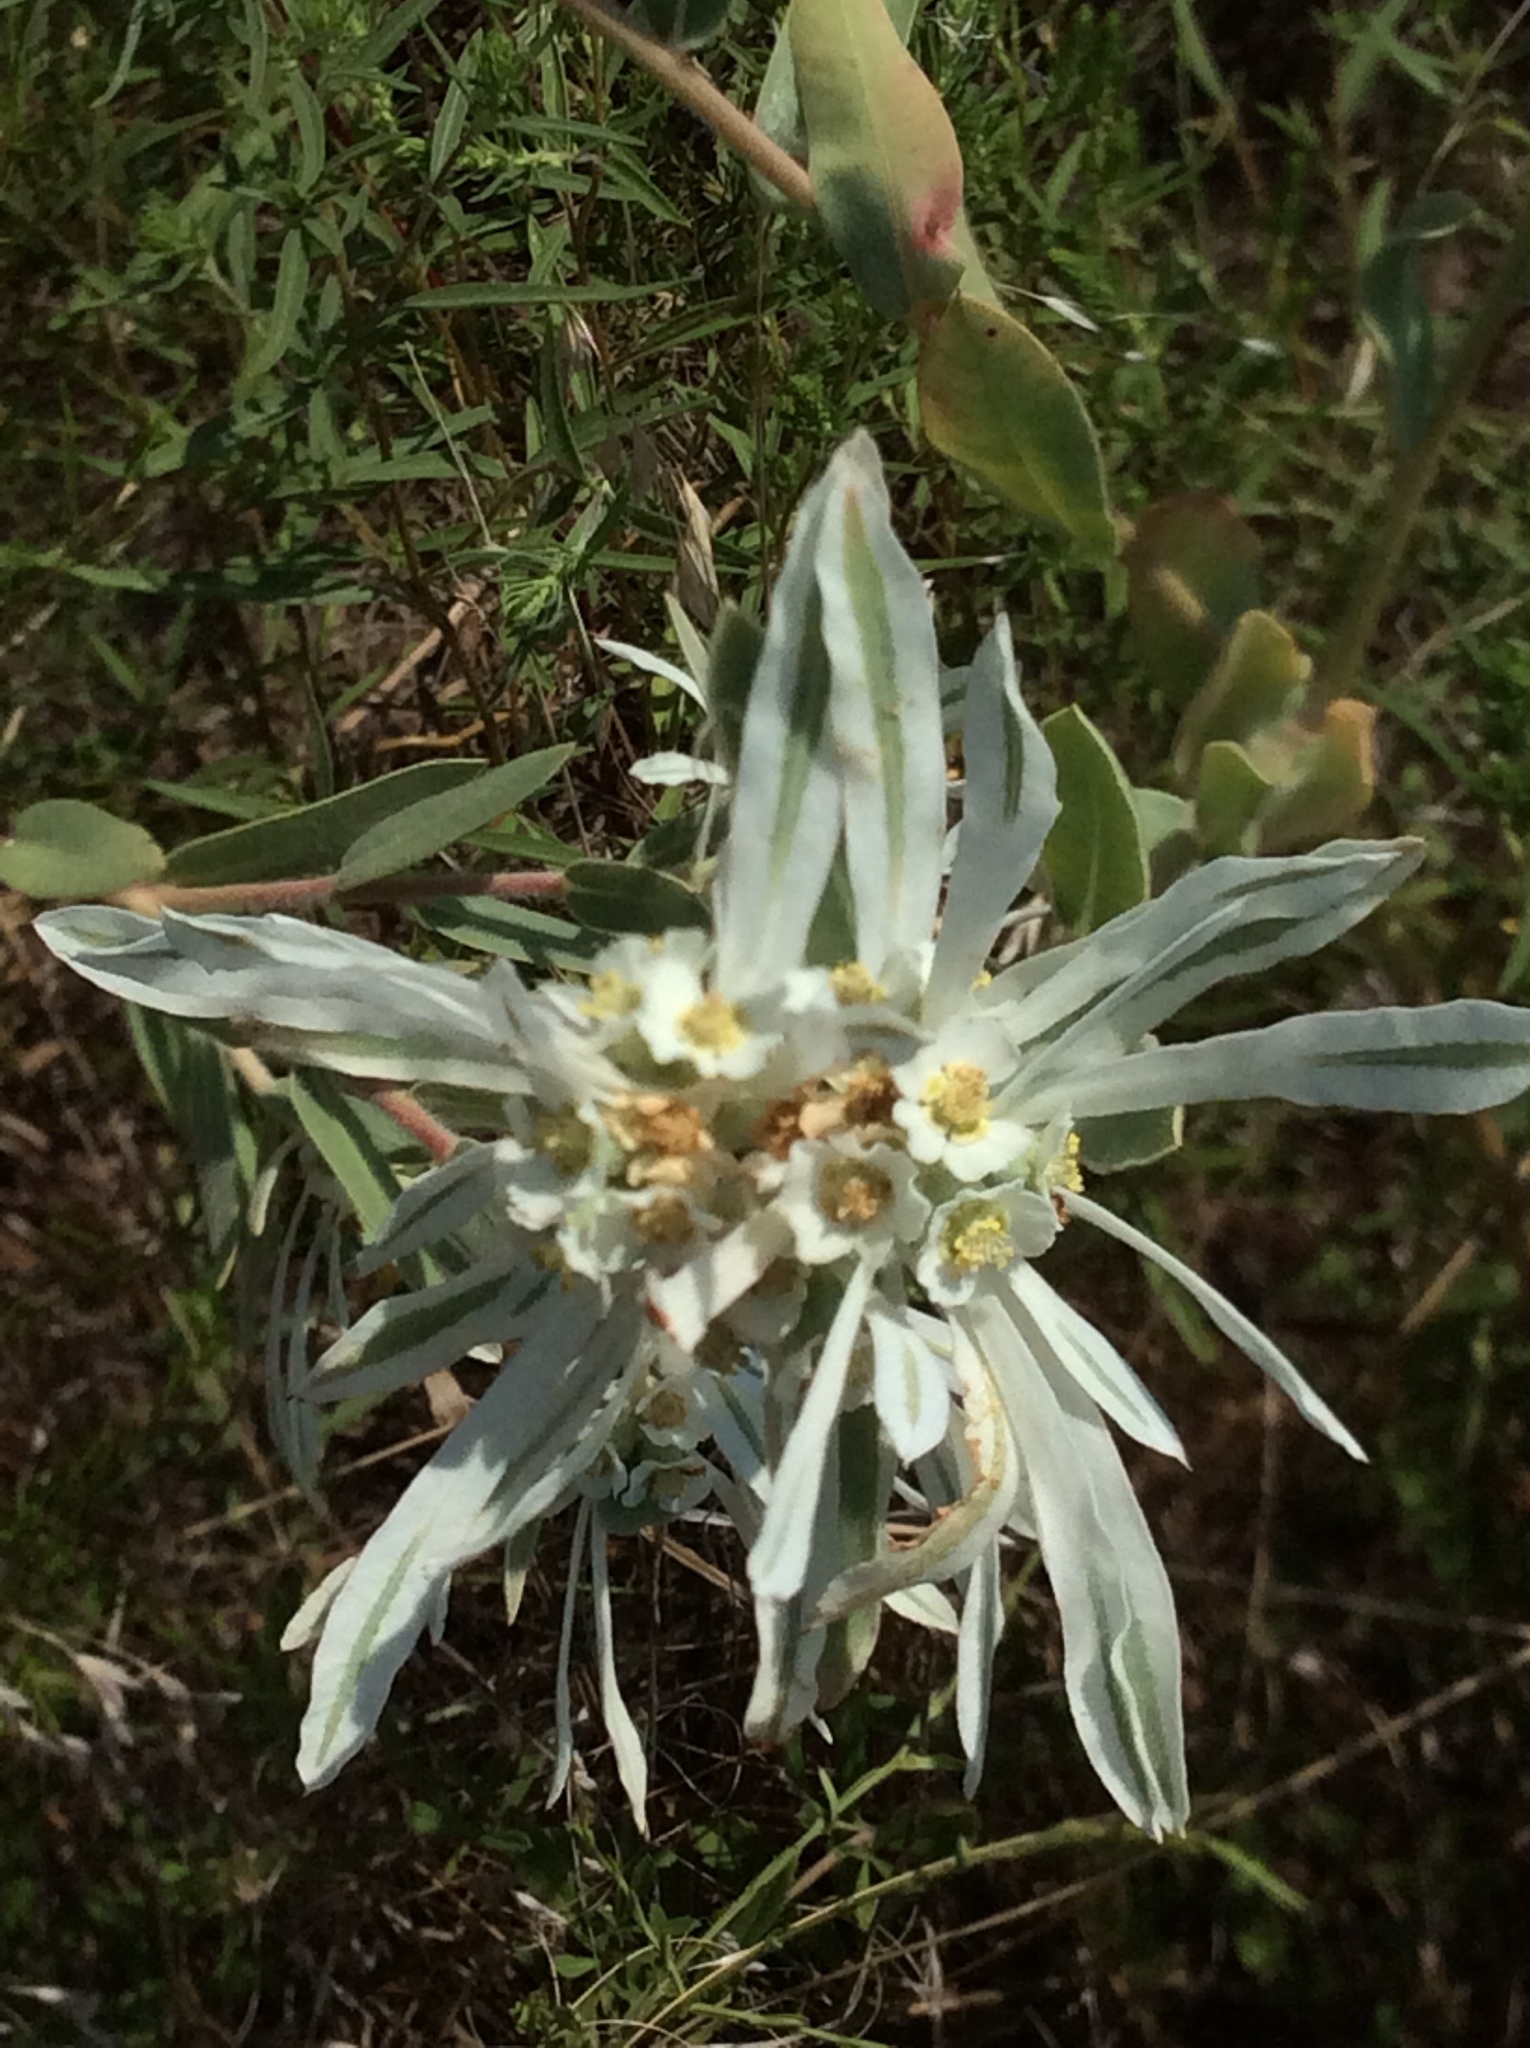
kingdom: Plantae
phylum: Tracheophyta
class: Magnoliopsida
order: Malpighiales
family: Euphorbiaceae
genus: Euphorbia
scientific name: Euphorbia bicolor
